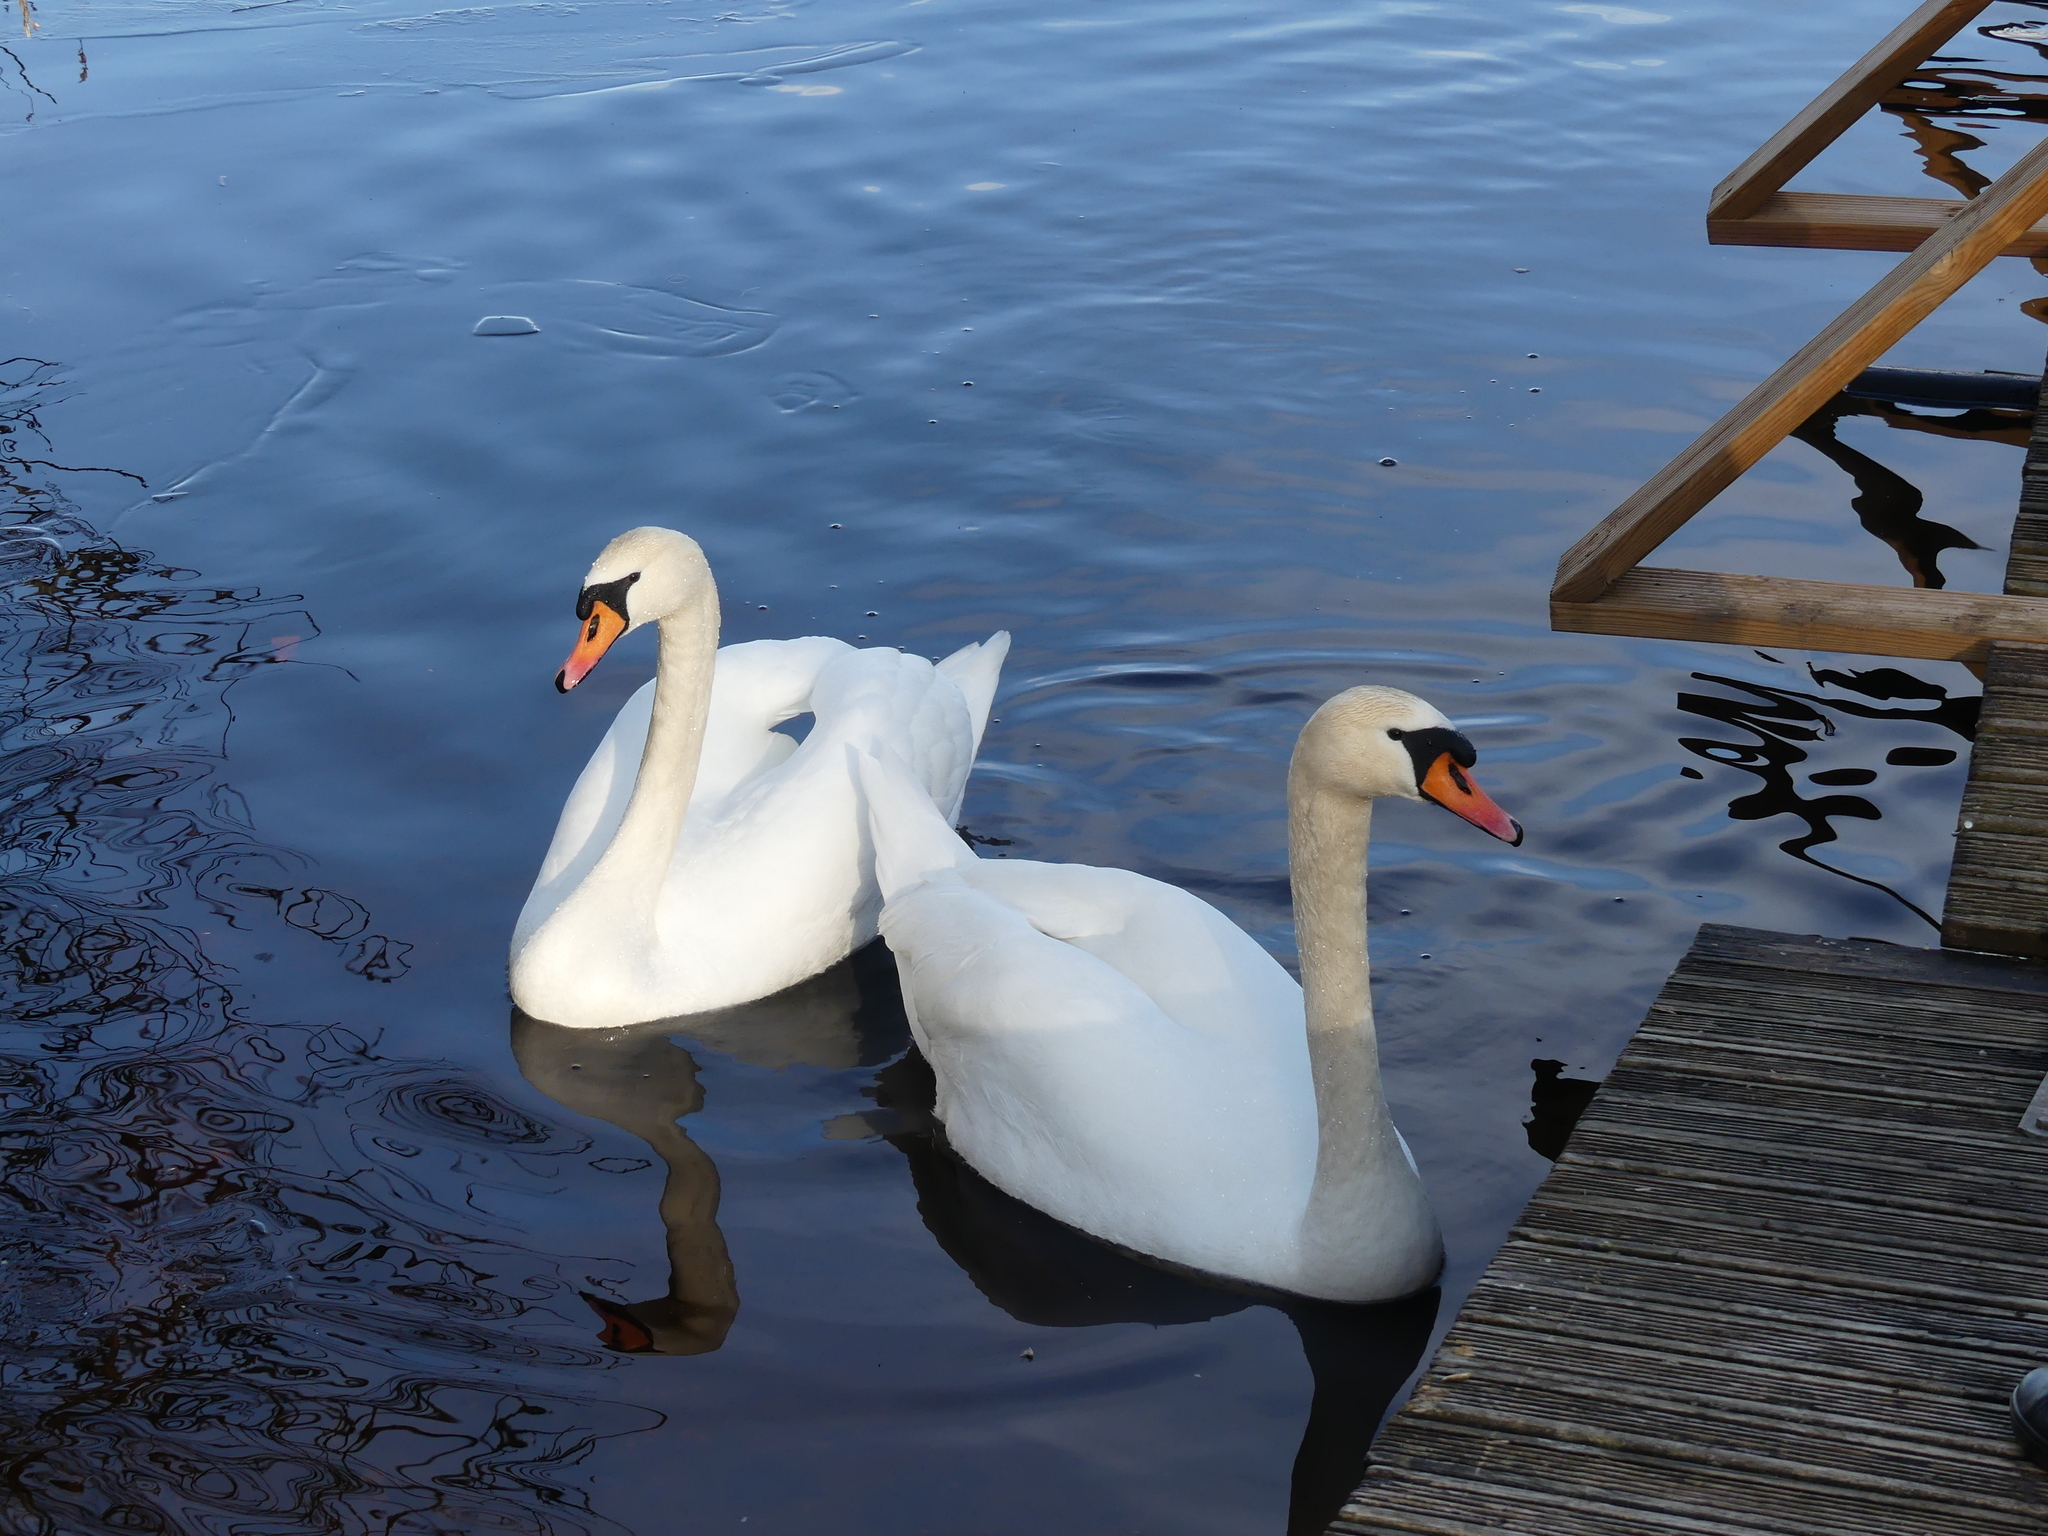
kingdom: Animalia
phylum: Chordata
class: Aves
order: Anseriformes
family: Anatidae
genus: Cygnus
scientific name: Cygnus olor
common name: Mute swan
